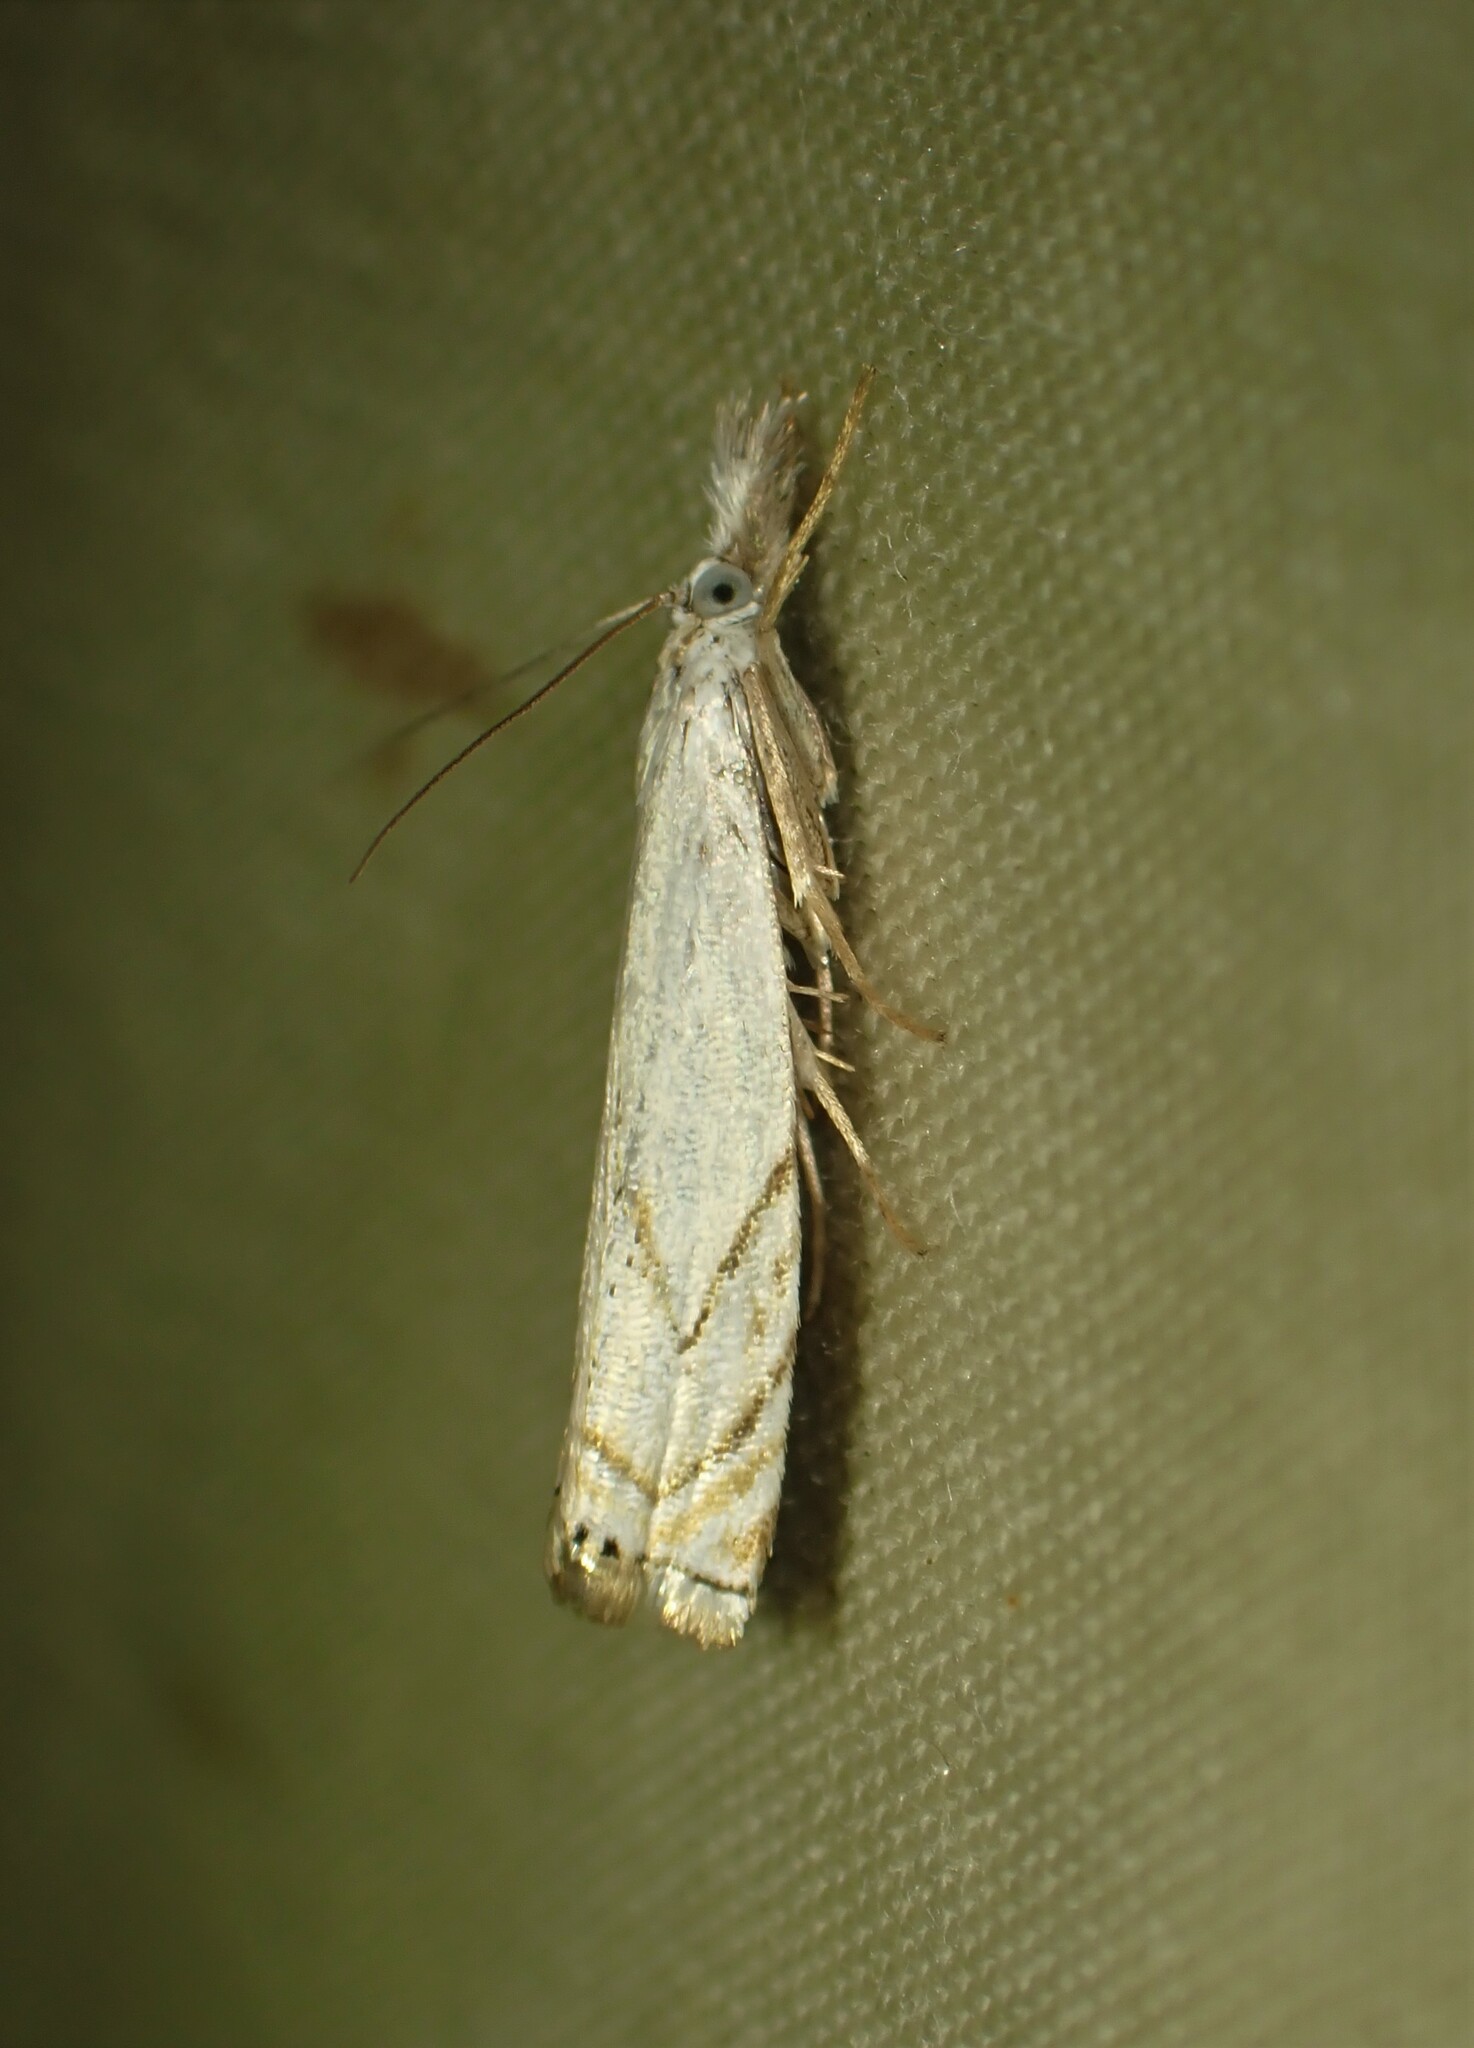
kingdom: Animalia
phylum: Arthropoda
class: Insecta
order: Lepidoptera
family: Crambidae
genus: Crambus
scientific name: Crambus albellus
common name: Small white grass-veneer
